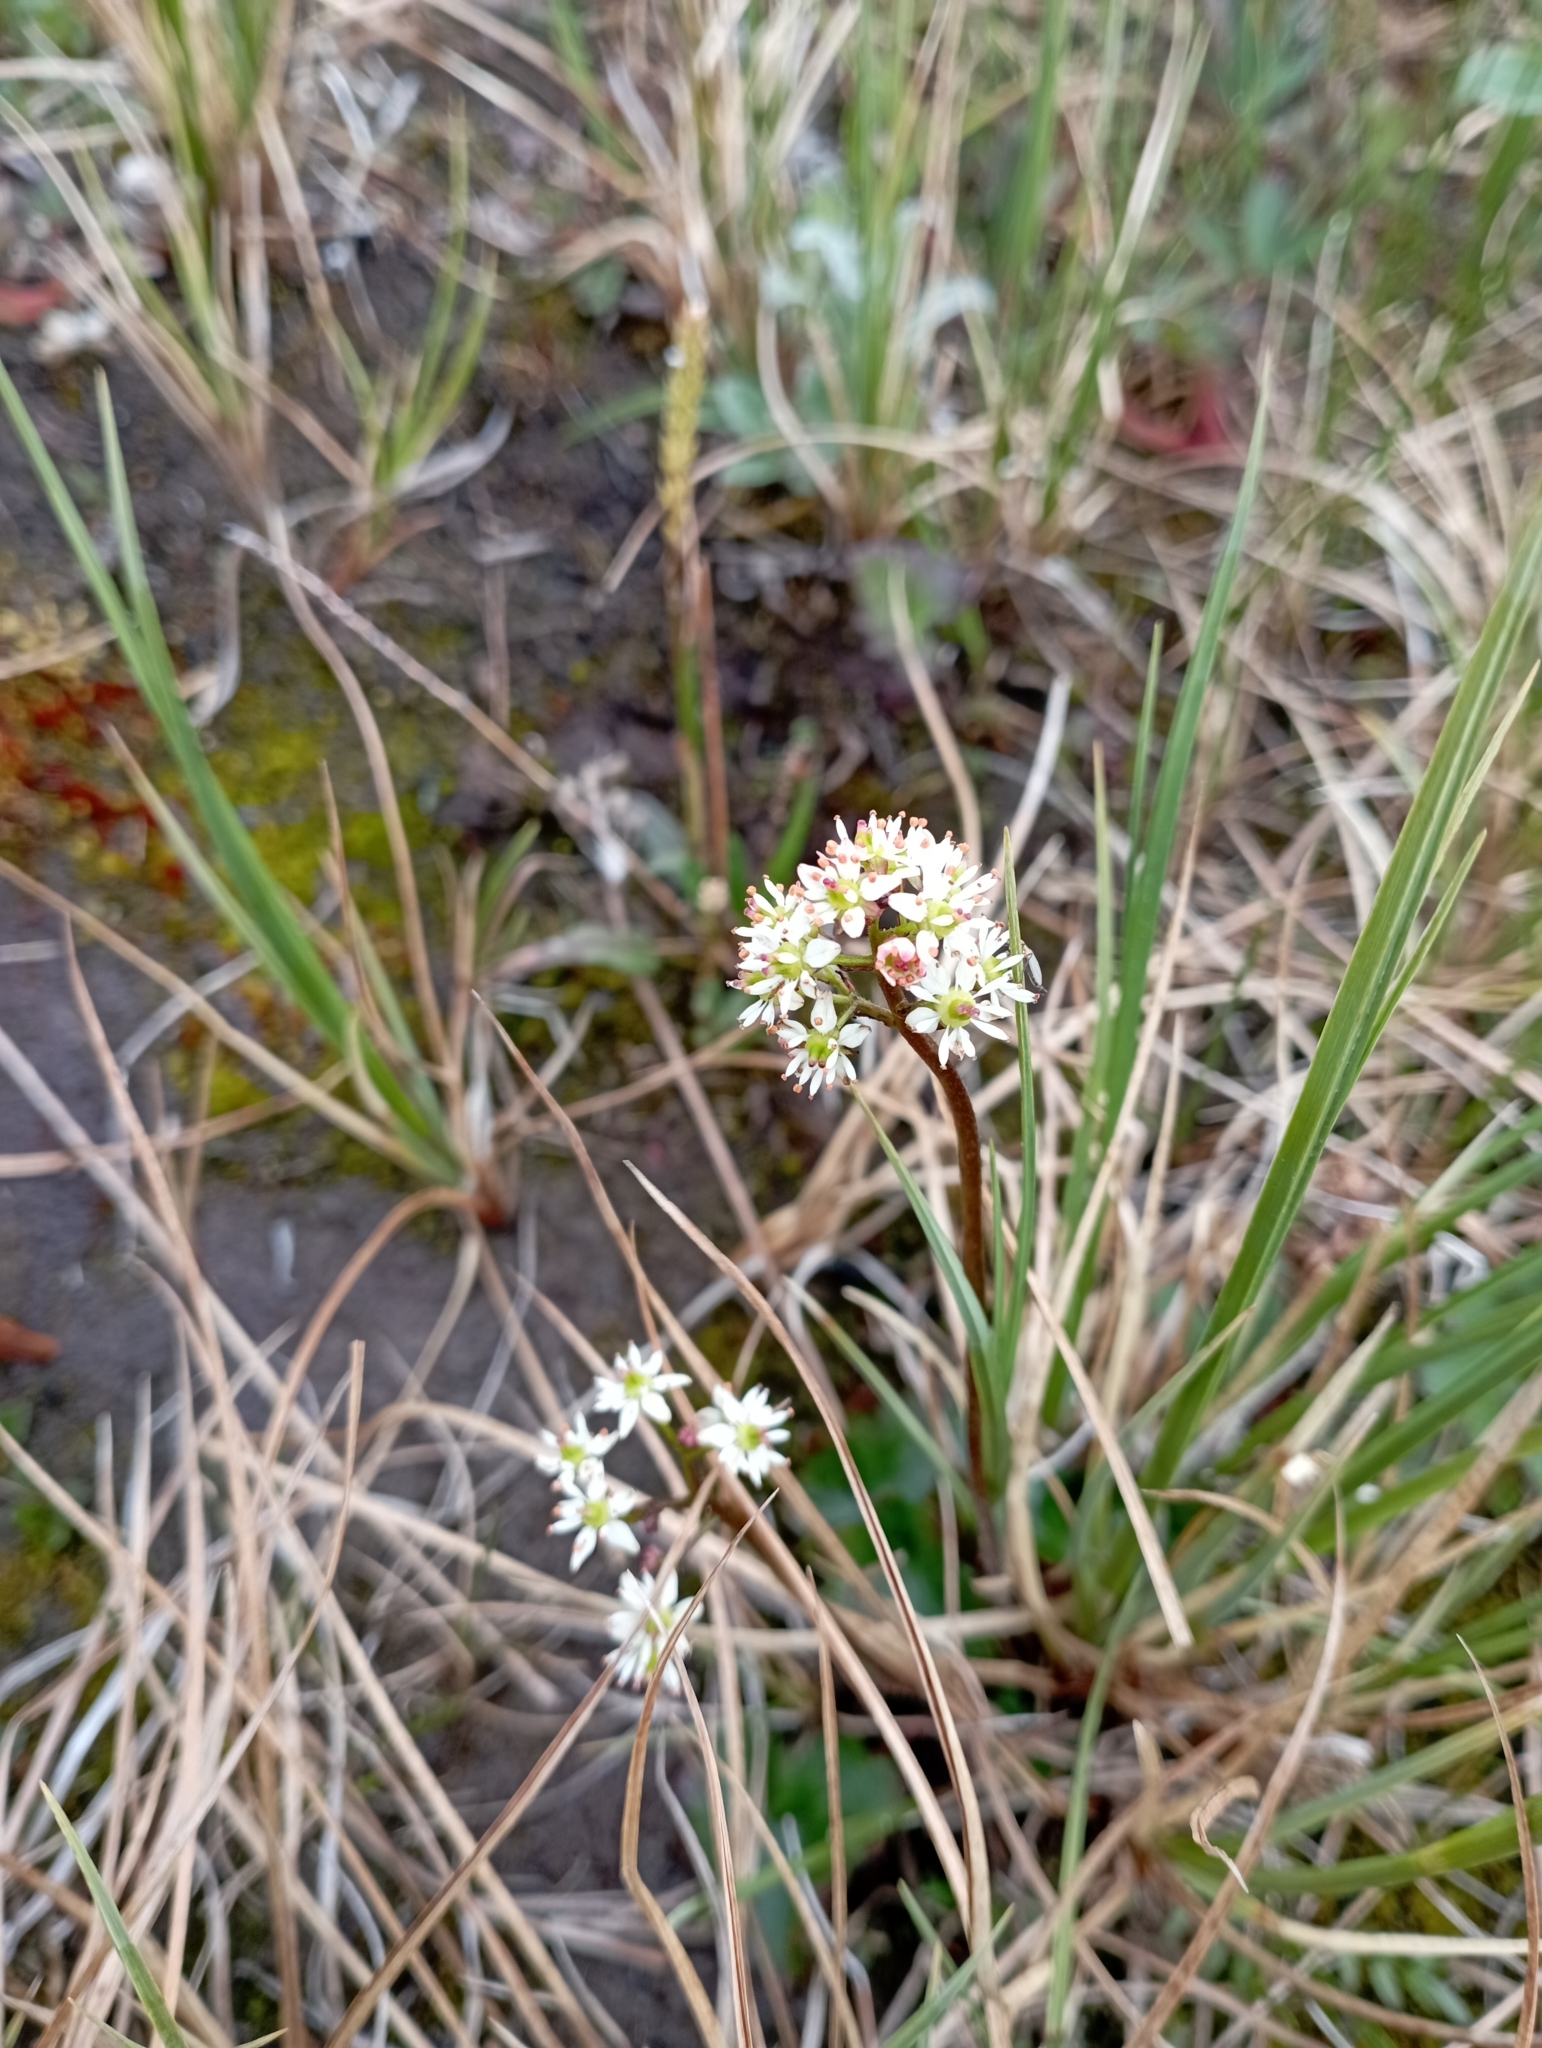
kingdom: Plantae
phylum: Tracheophyta
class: Magnoliopsida
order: Saxifragales
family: Saxifragaceae
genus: Micranthes
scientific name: Micranthes nelsoniana
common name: Nelson's saxifrage
